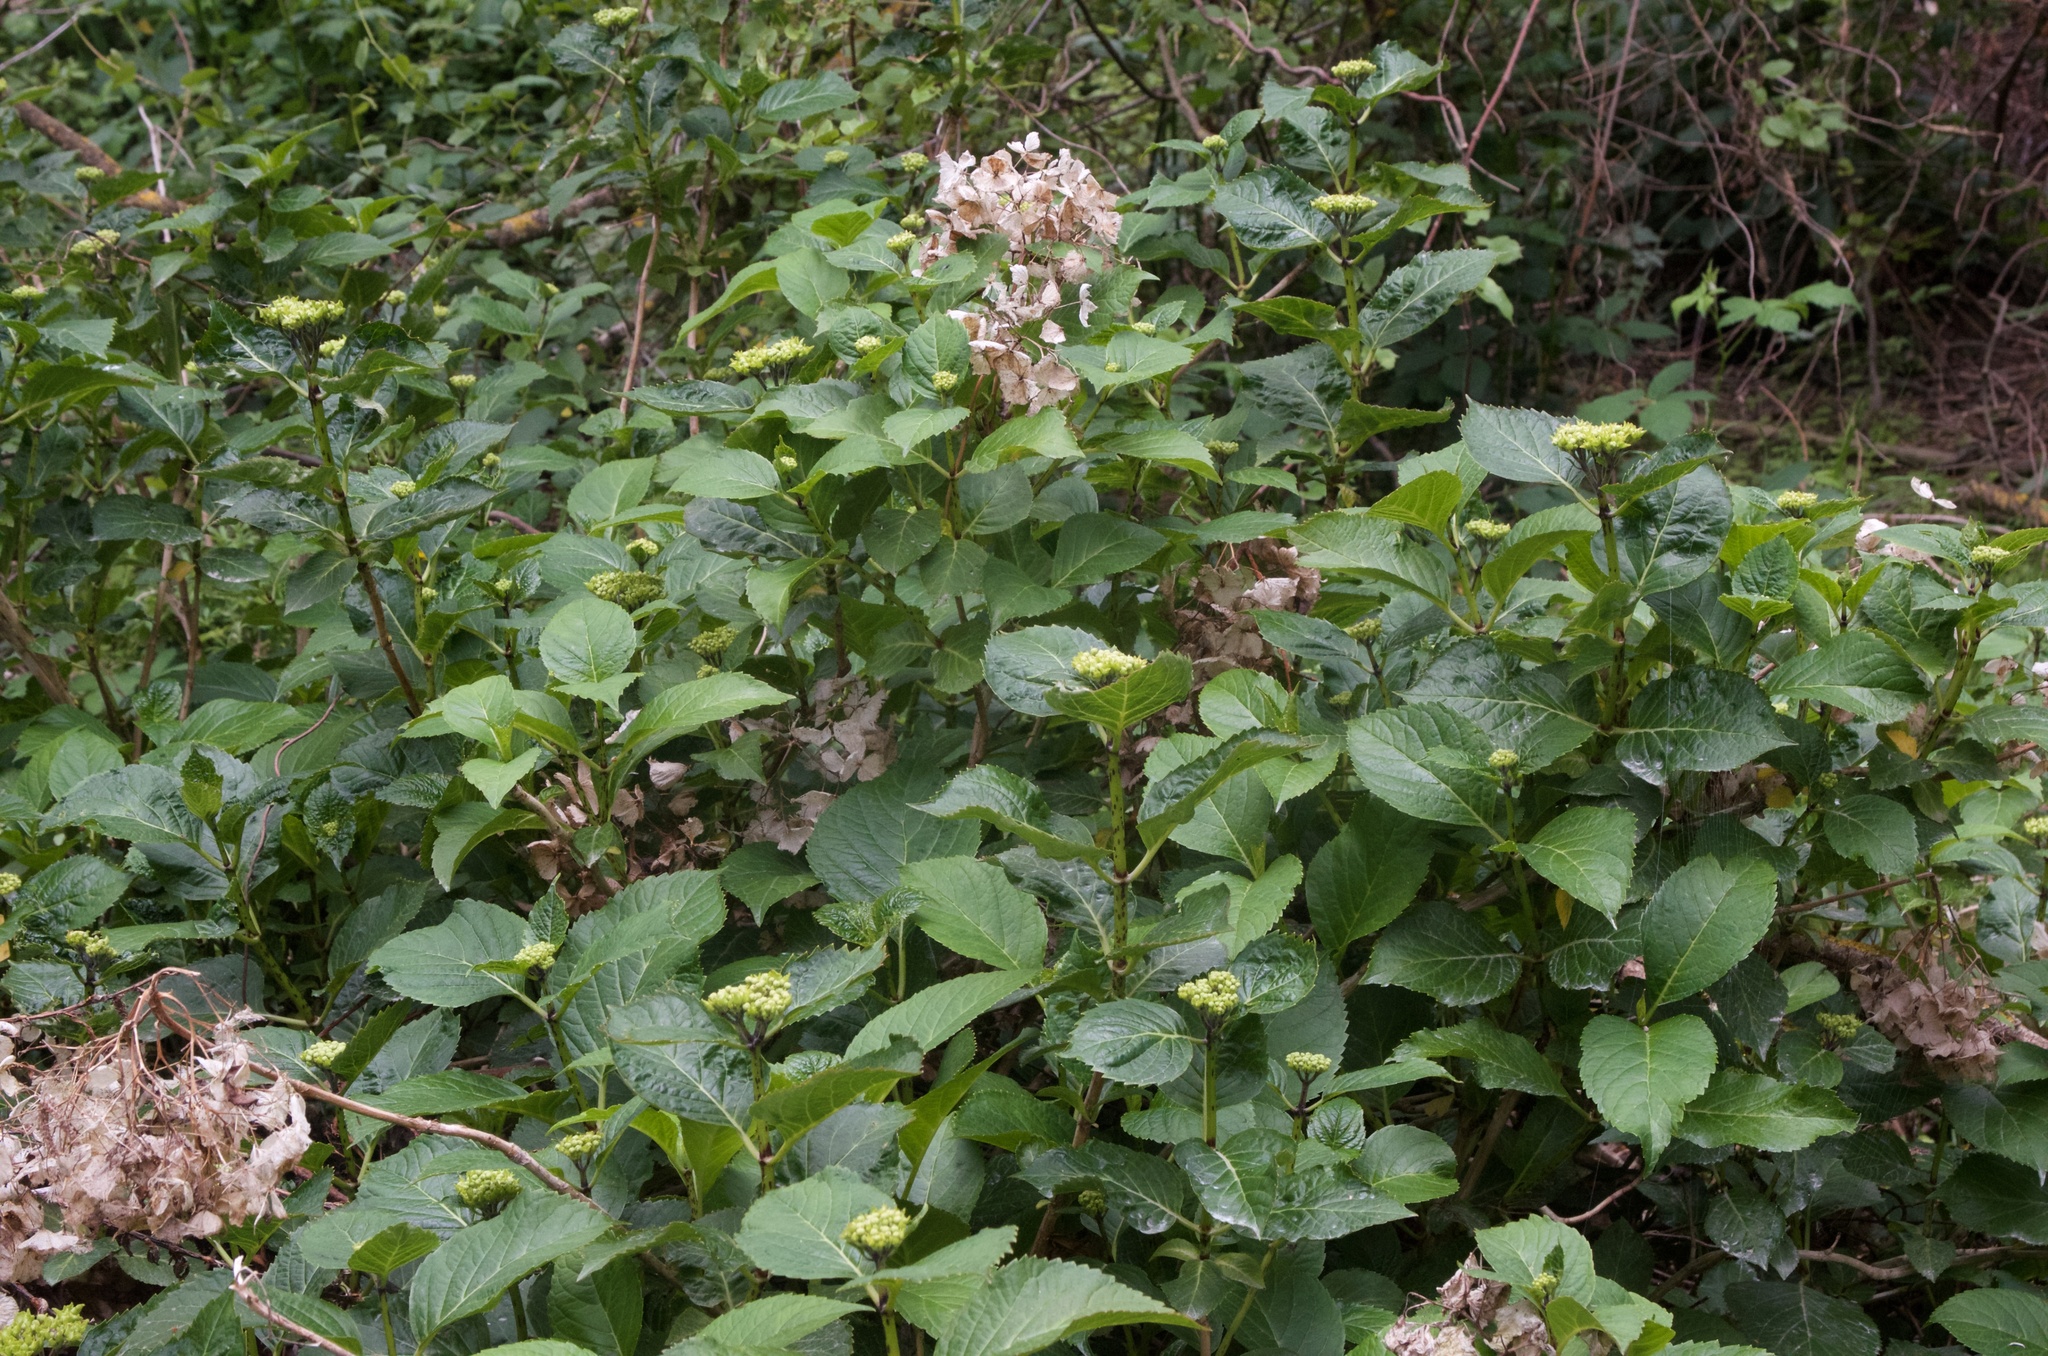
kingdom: Plantae
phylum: Tracheophyta
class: Magnoliopsida
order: Cornales
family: Hydrangeaceae
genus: Hydrangea
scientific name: Hydrangea macrophylla
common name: Hydrangea
